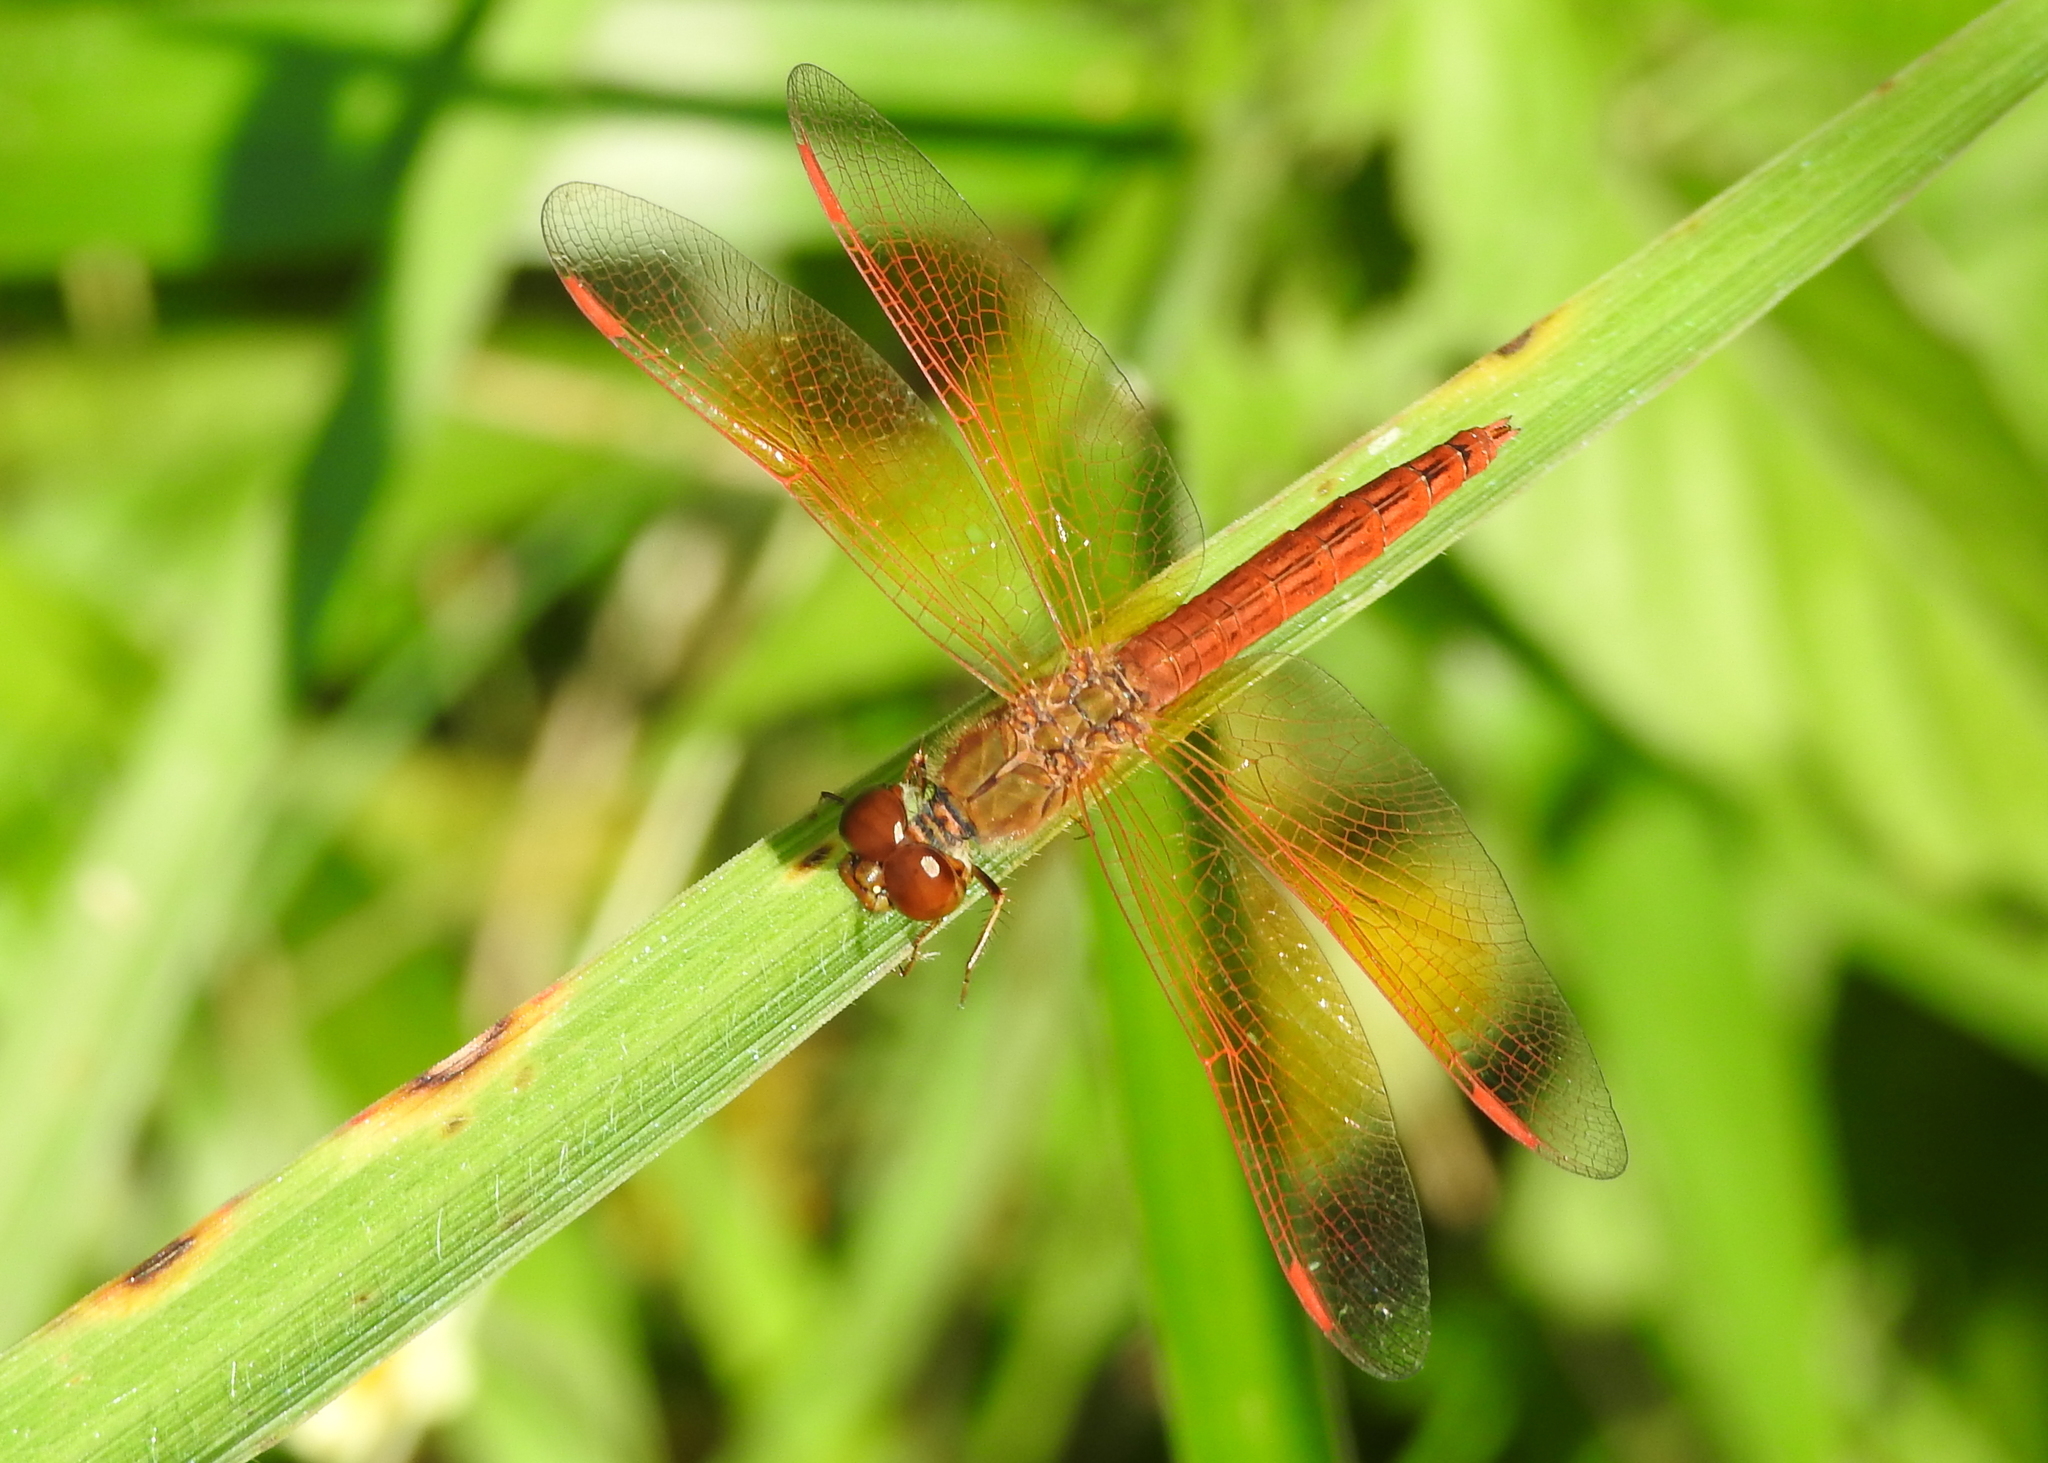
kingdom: Animalia
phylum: Arthropoda
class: Insecta
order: Odonata
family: Libellulidae
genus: Brachythemis
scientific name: Brachythemis contaminata
